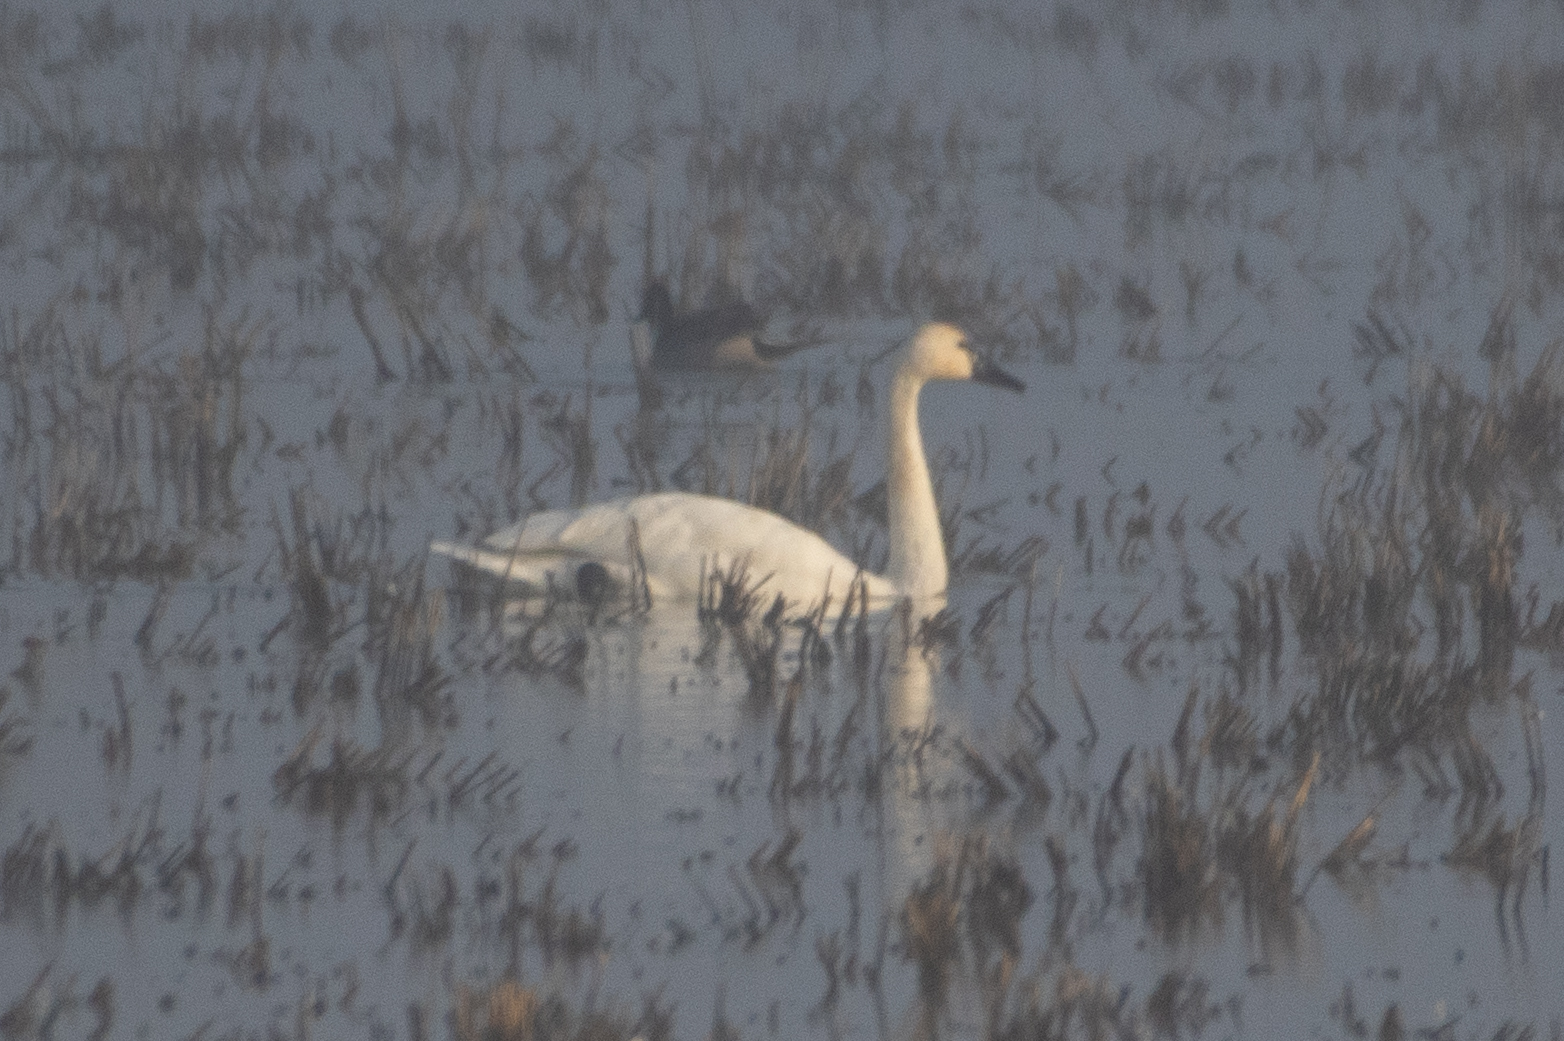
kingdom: Animalia
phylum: Chordata
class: Aves
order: Anseriformes
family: Anatidae
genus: Cygnus
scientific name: Cygnus columbianus
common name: Tundra swan
